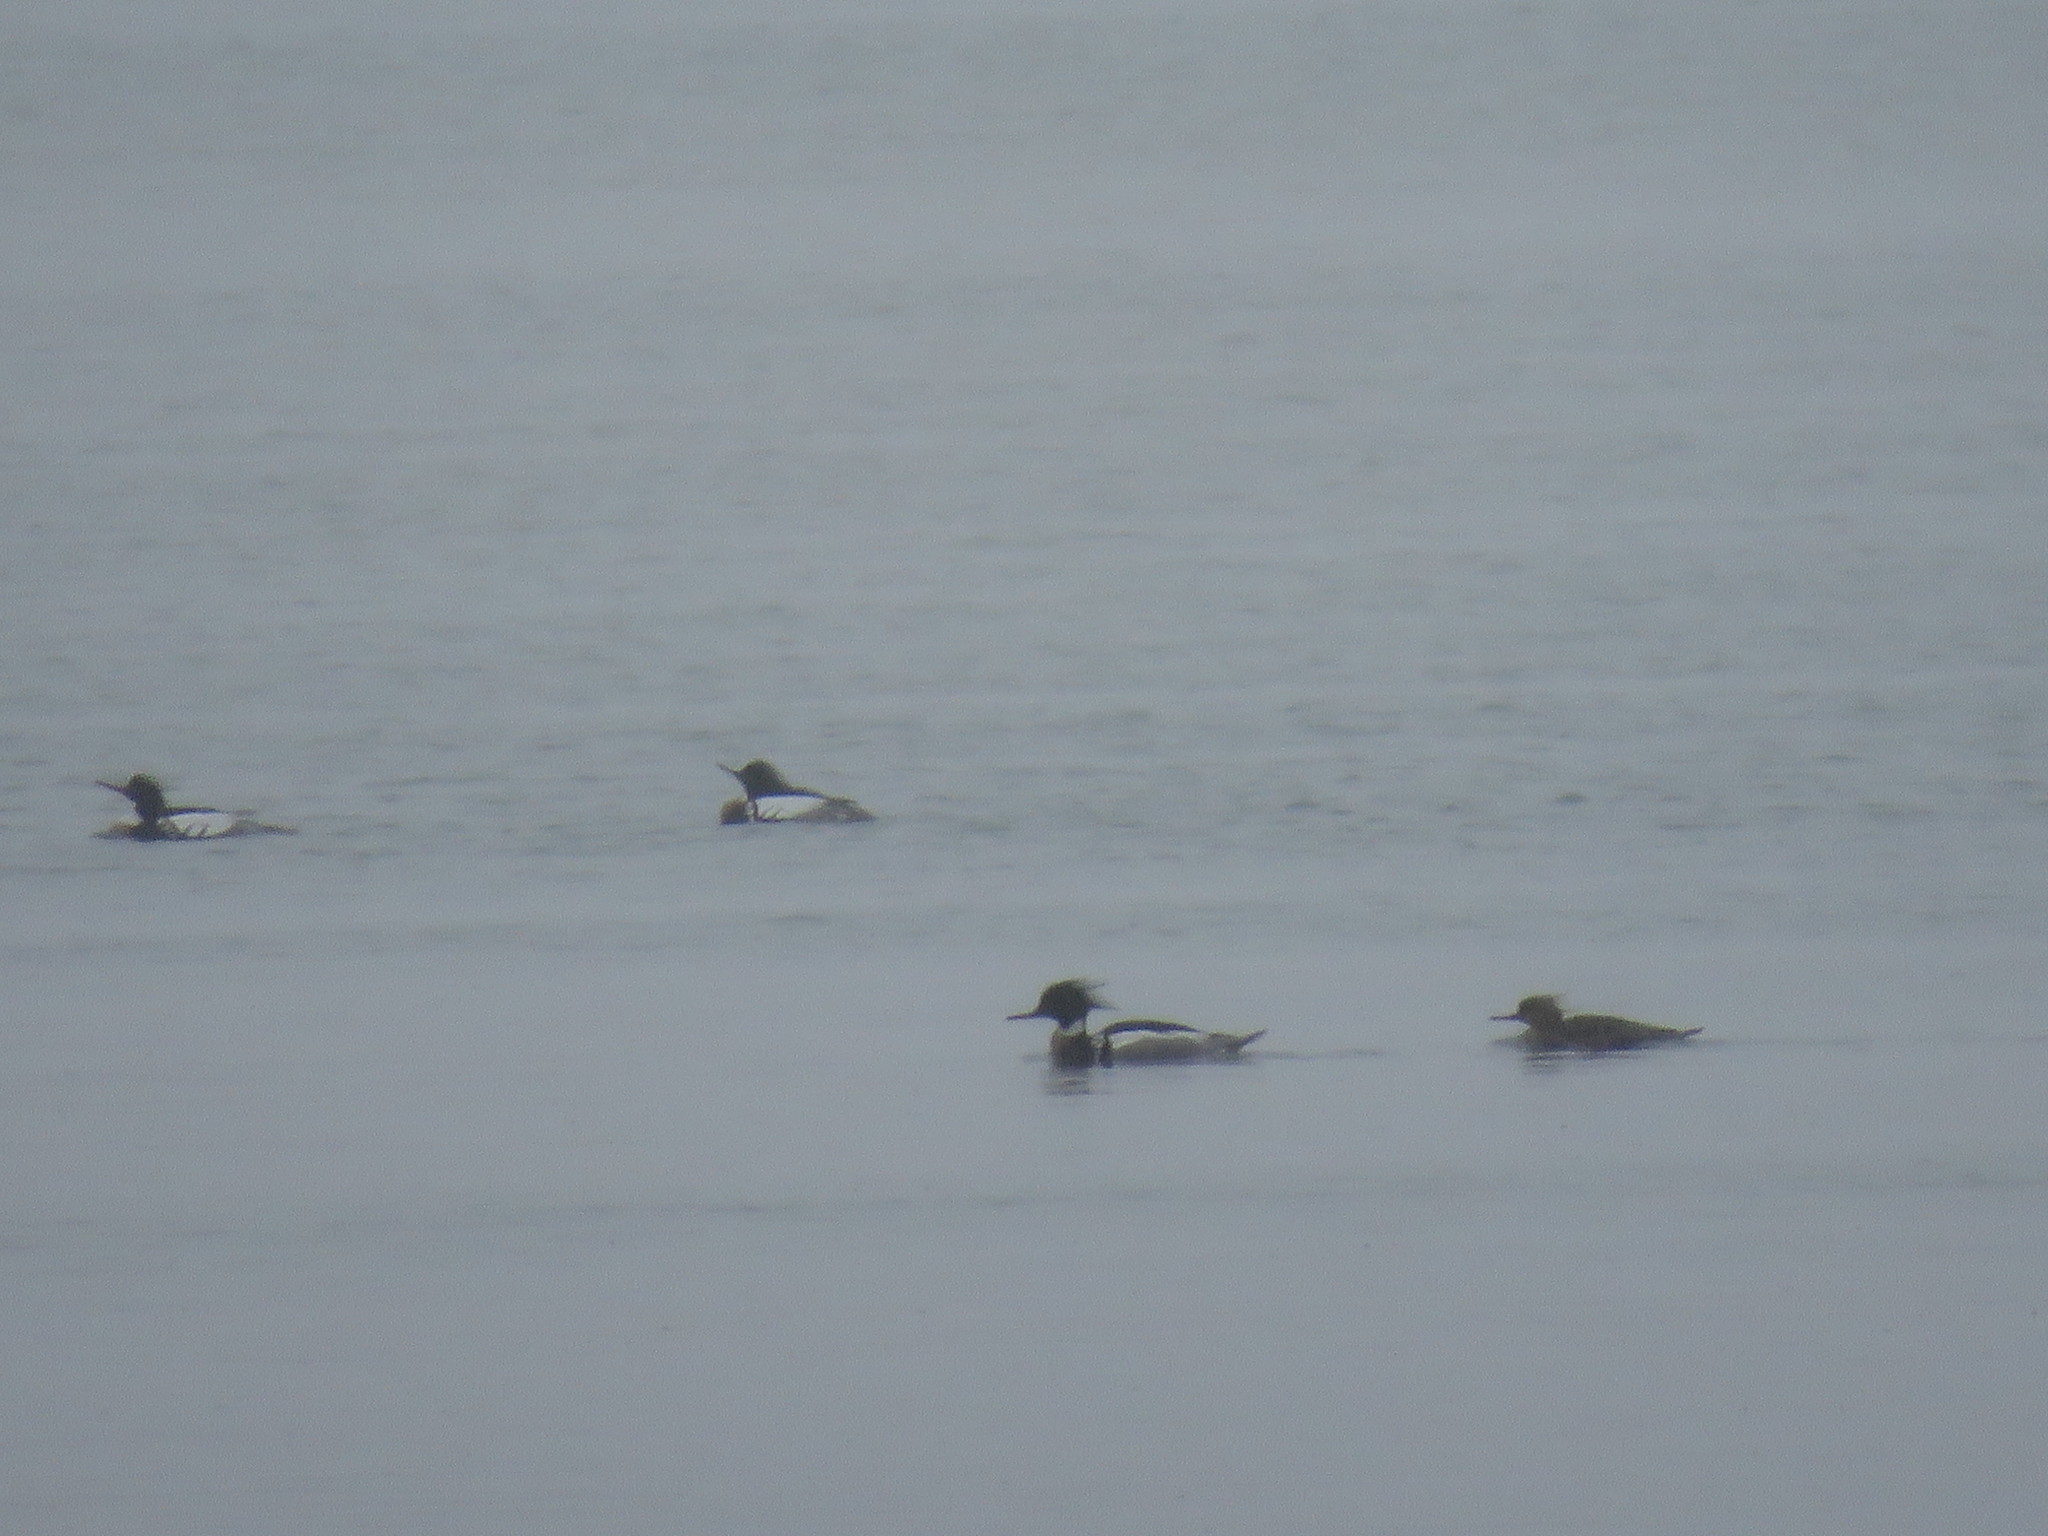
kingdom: Animalia
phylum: Chordata
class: Aves
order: Anseriformes
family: Anatidae
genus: Mergus
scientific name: Mergus serrator
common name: Red-breasted merganser
